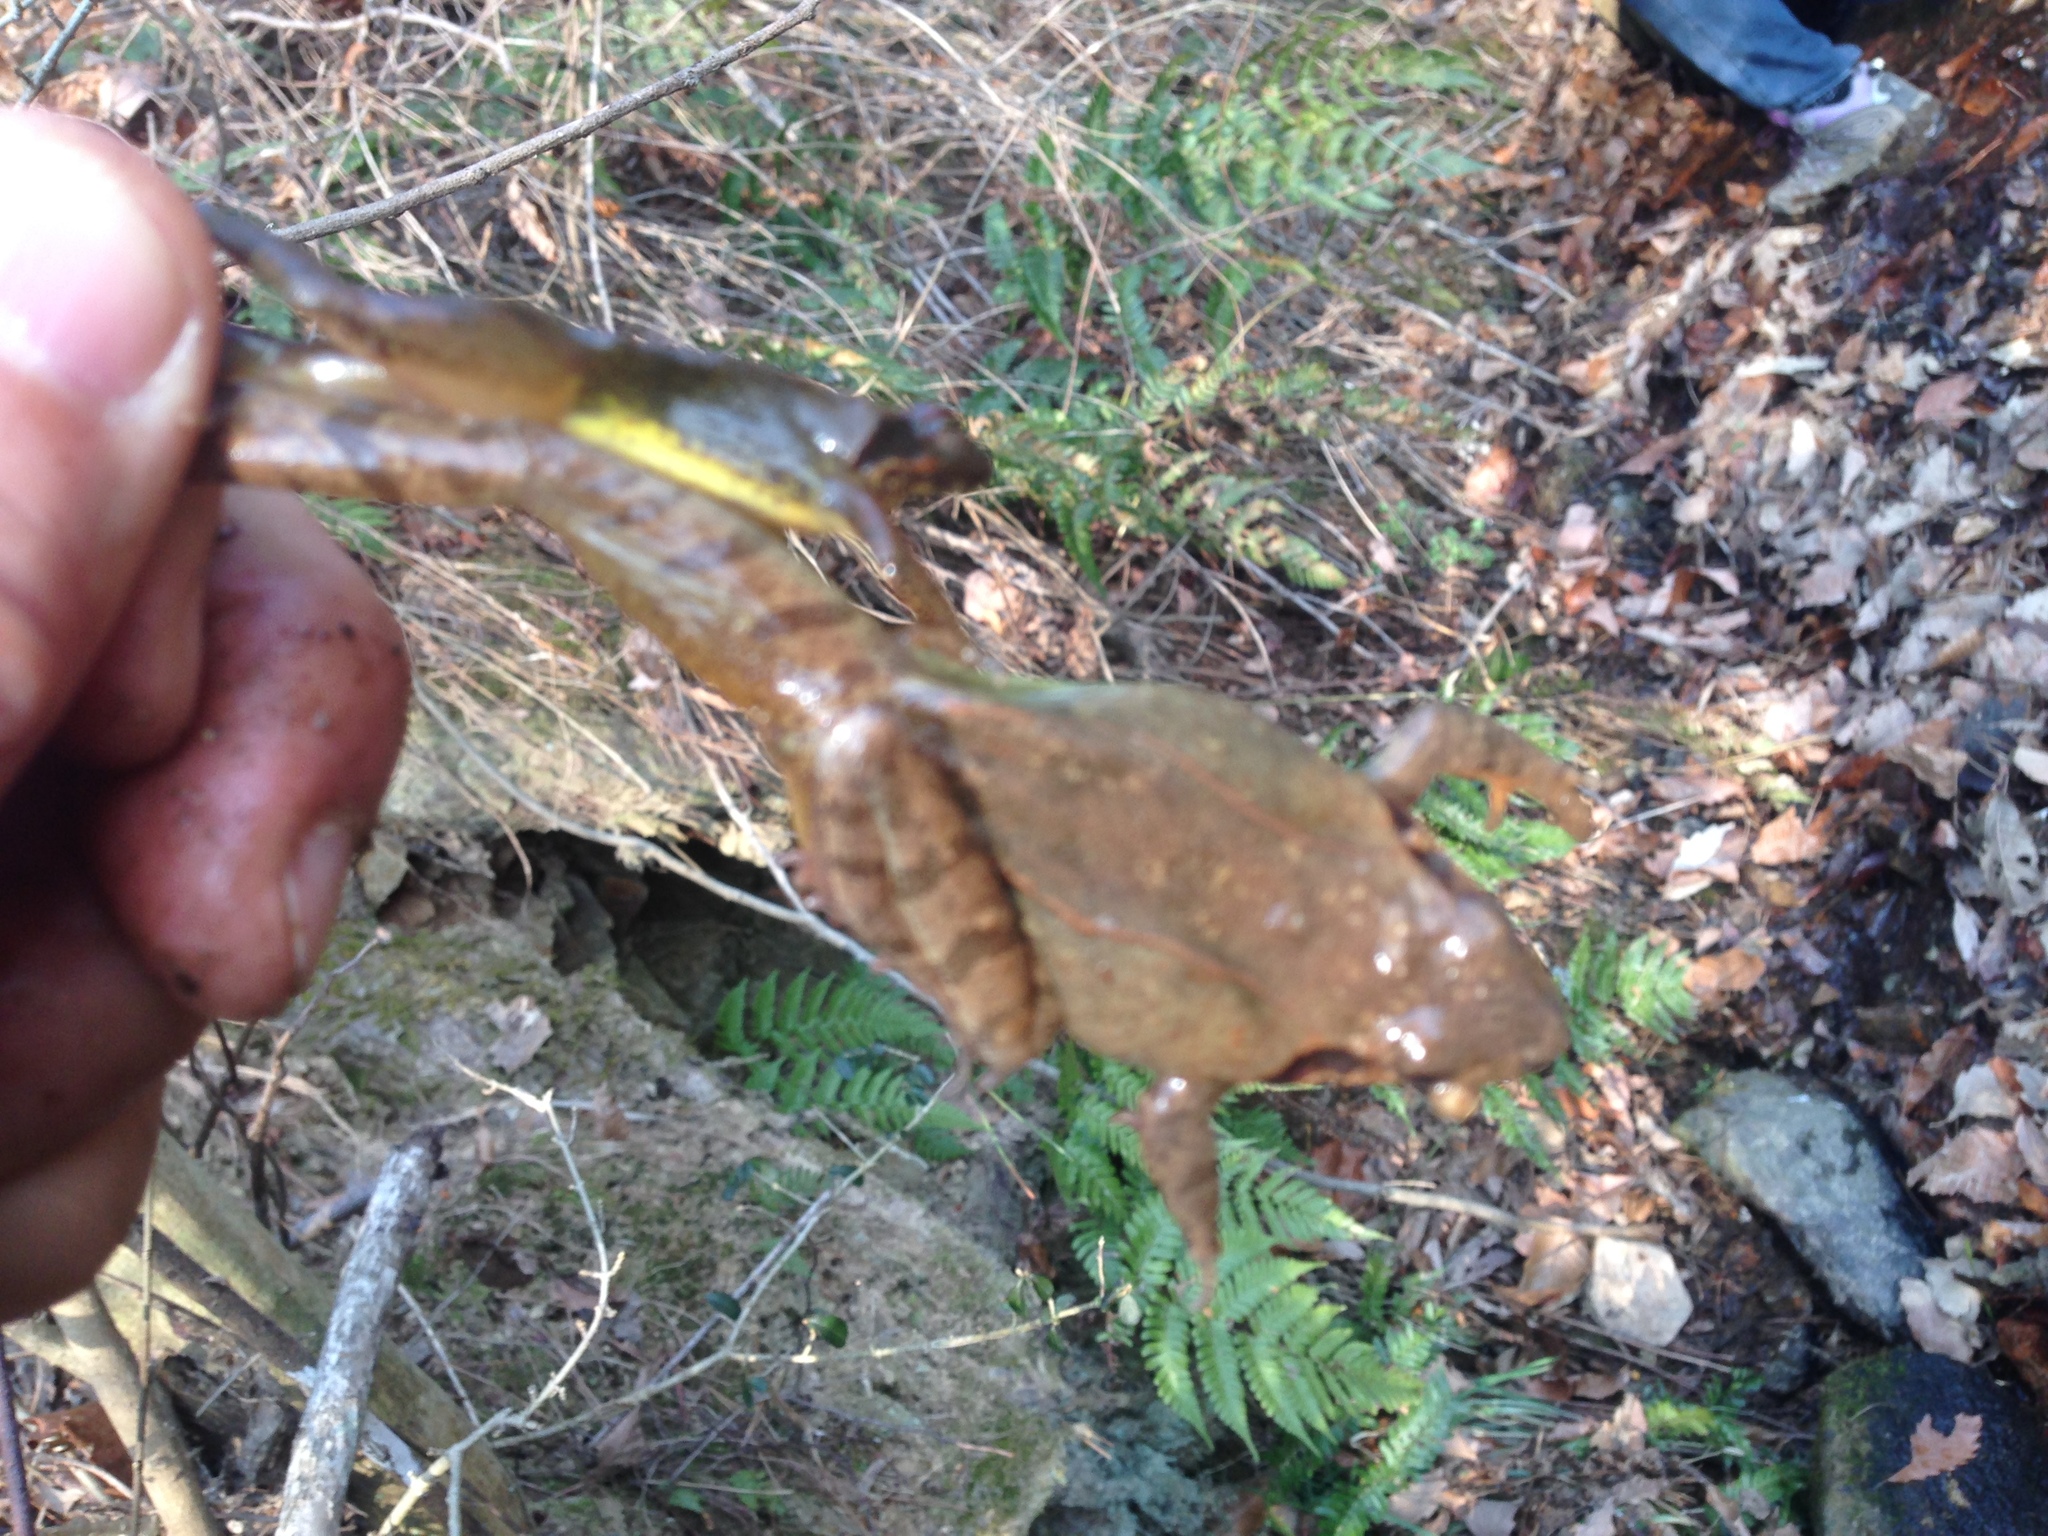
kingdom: Animalia
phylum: Chordata
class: Amphibia
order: Anura
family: Ranidae
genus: Rana
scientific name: Rana uenoi
